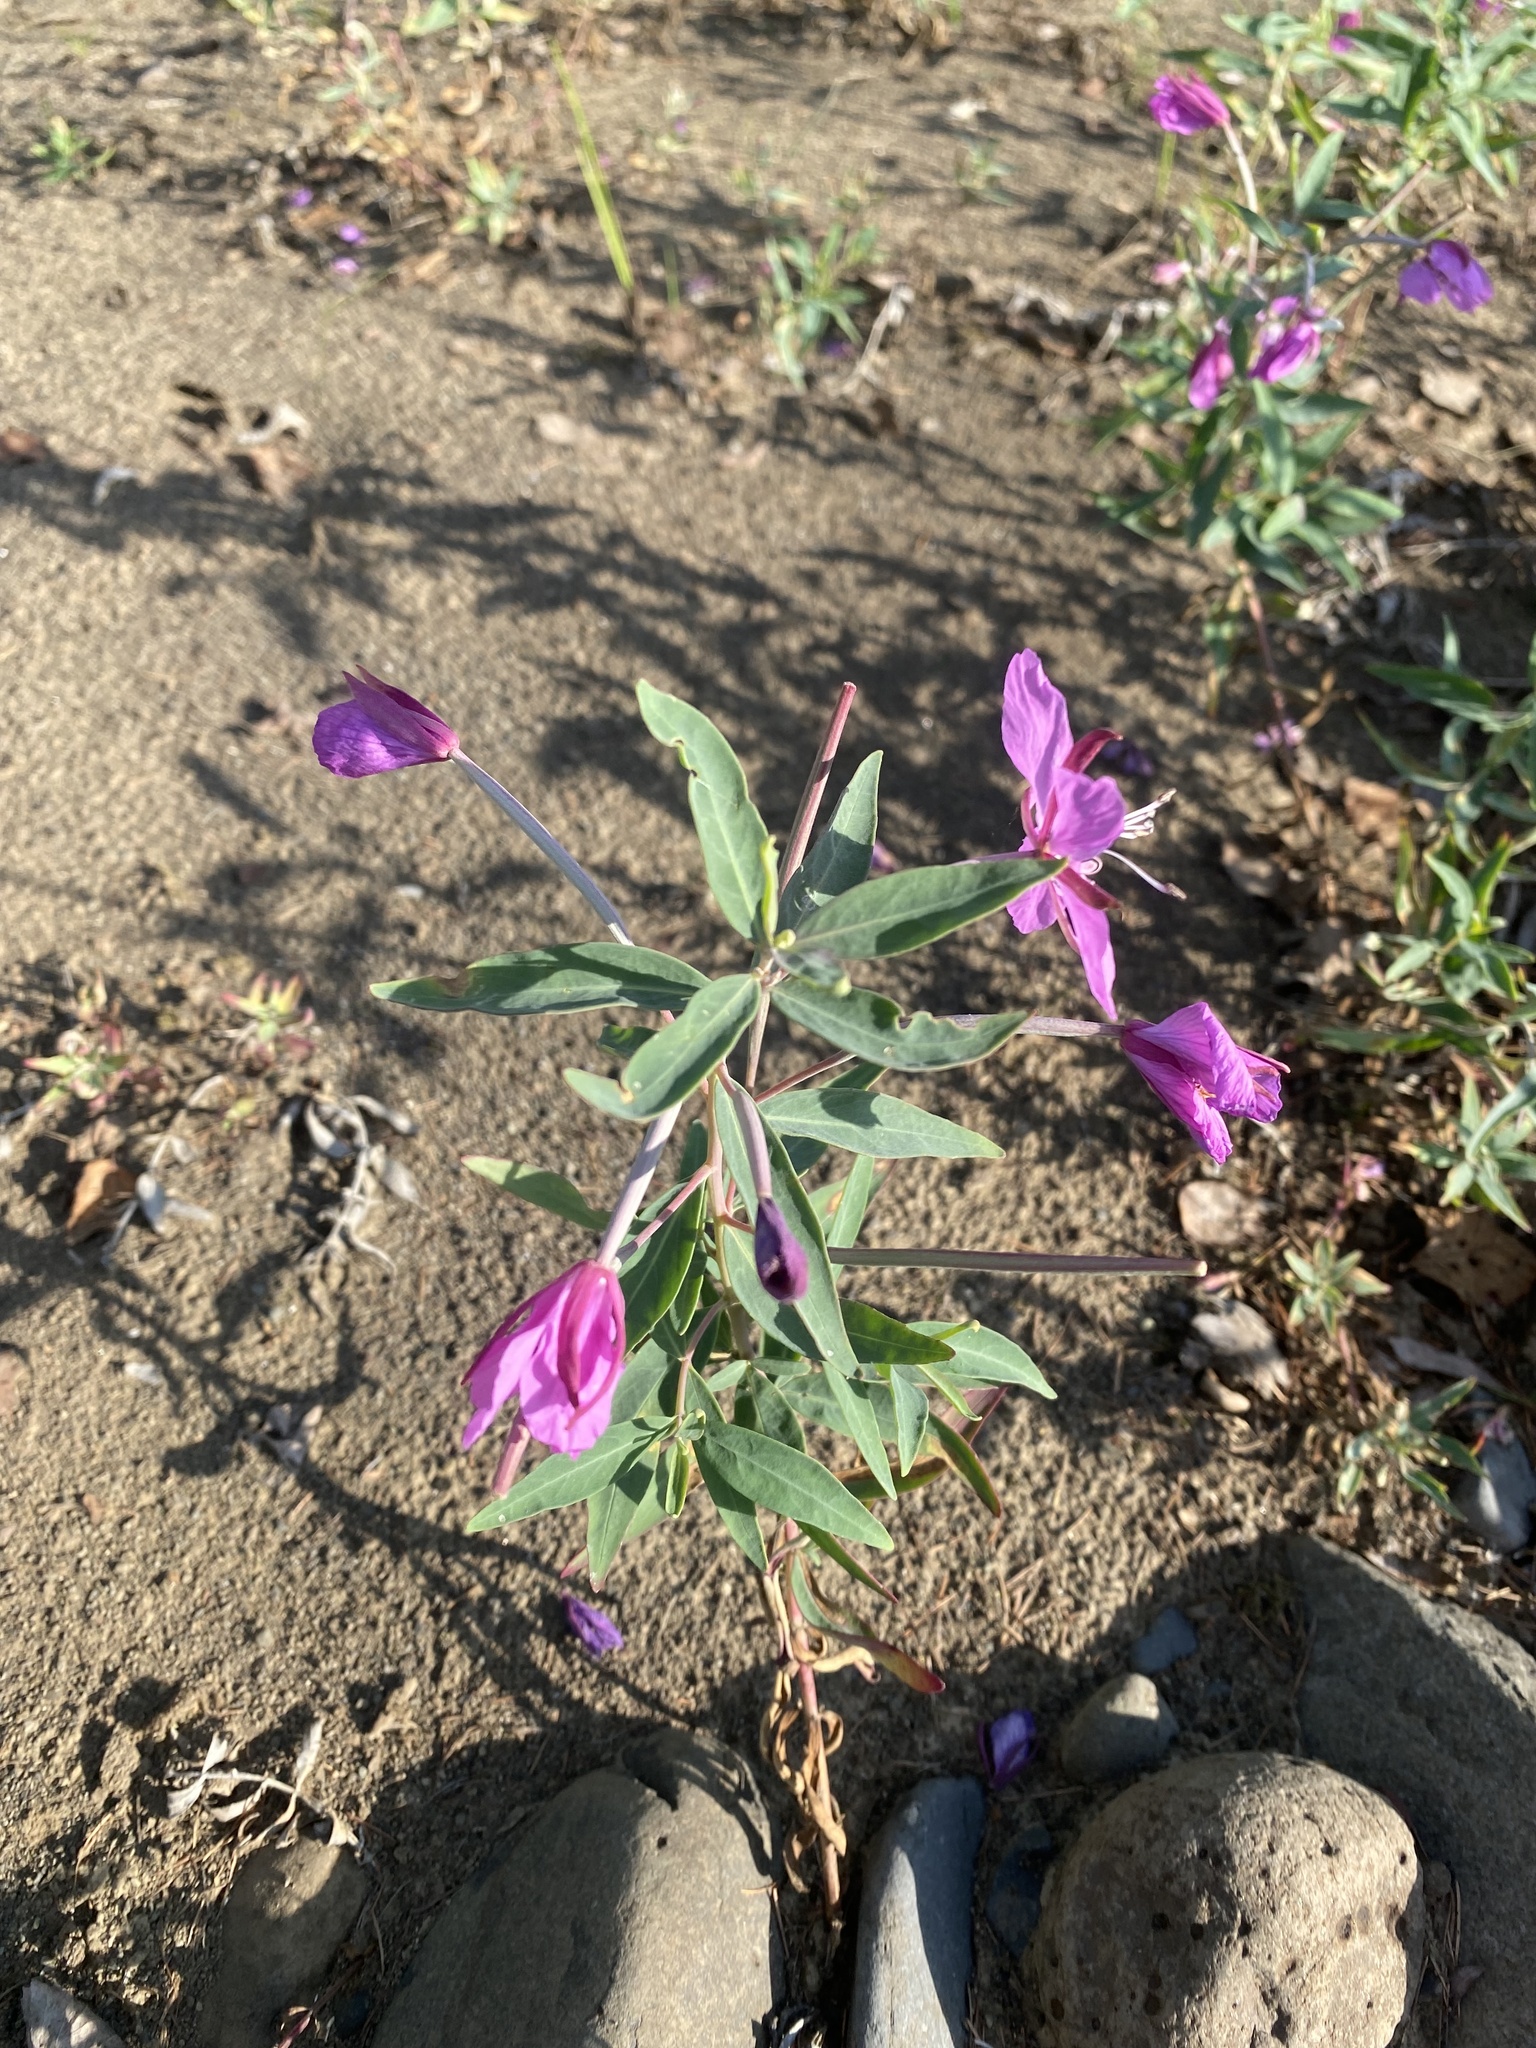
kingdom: Plantae
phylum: Tracheophyta
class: Magnoliopsida
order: Myrtales
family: Onagraceae
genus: Chamaenerion
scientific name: Chamaenerion latifolium
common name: Dwarf fireweed
